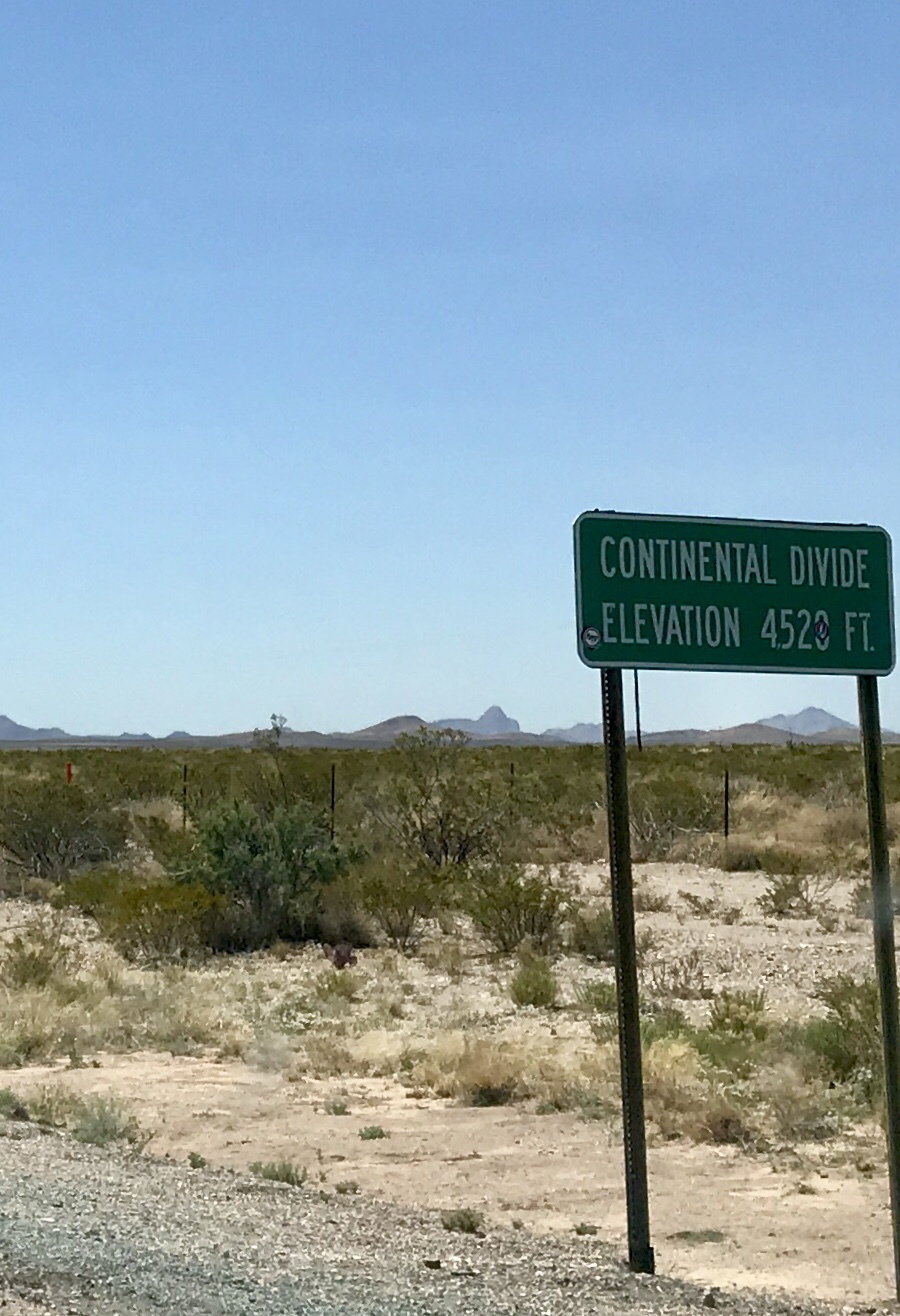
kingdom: Plantae
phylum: Tracheophyta
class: Magnoliopsida
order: Zygophyllales
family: Zygophyllaceae
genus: Larrea
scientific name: Larrea tridentata
